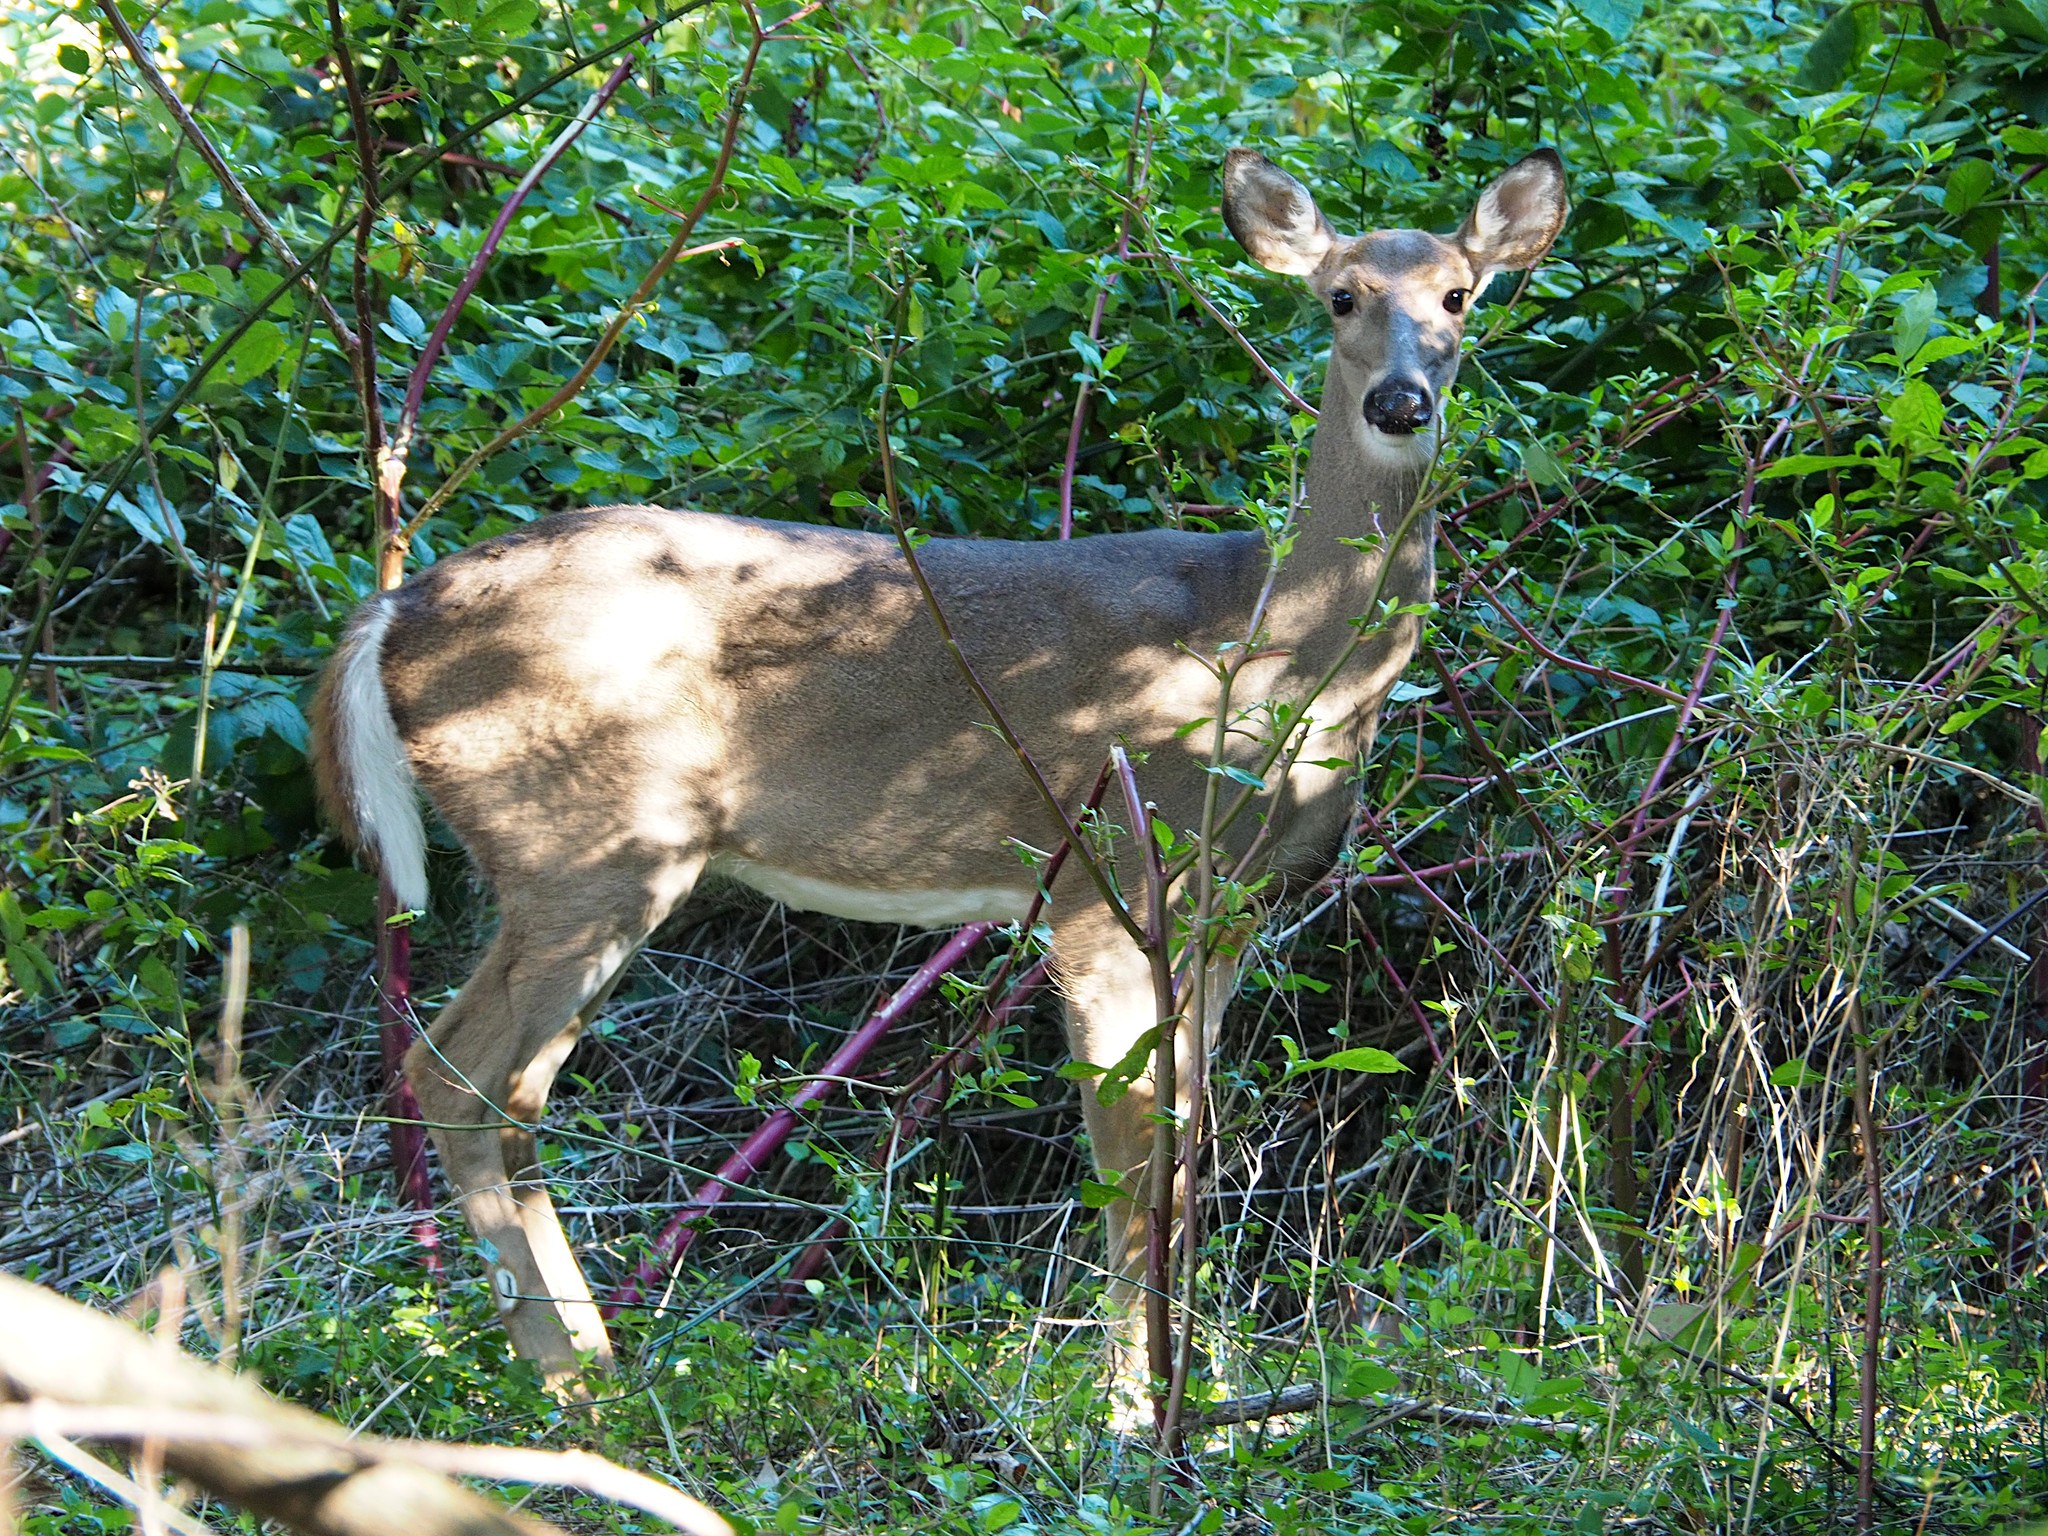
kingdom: Animalia
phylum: Chordata
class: Mammalia
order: Artiodactyla
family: Cervidae
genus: Odocoileus
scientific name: Odocoileus virginianus
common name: White-tailed deer
